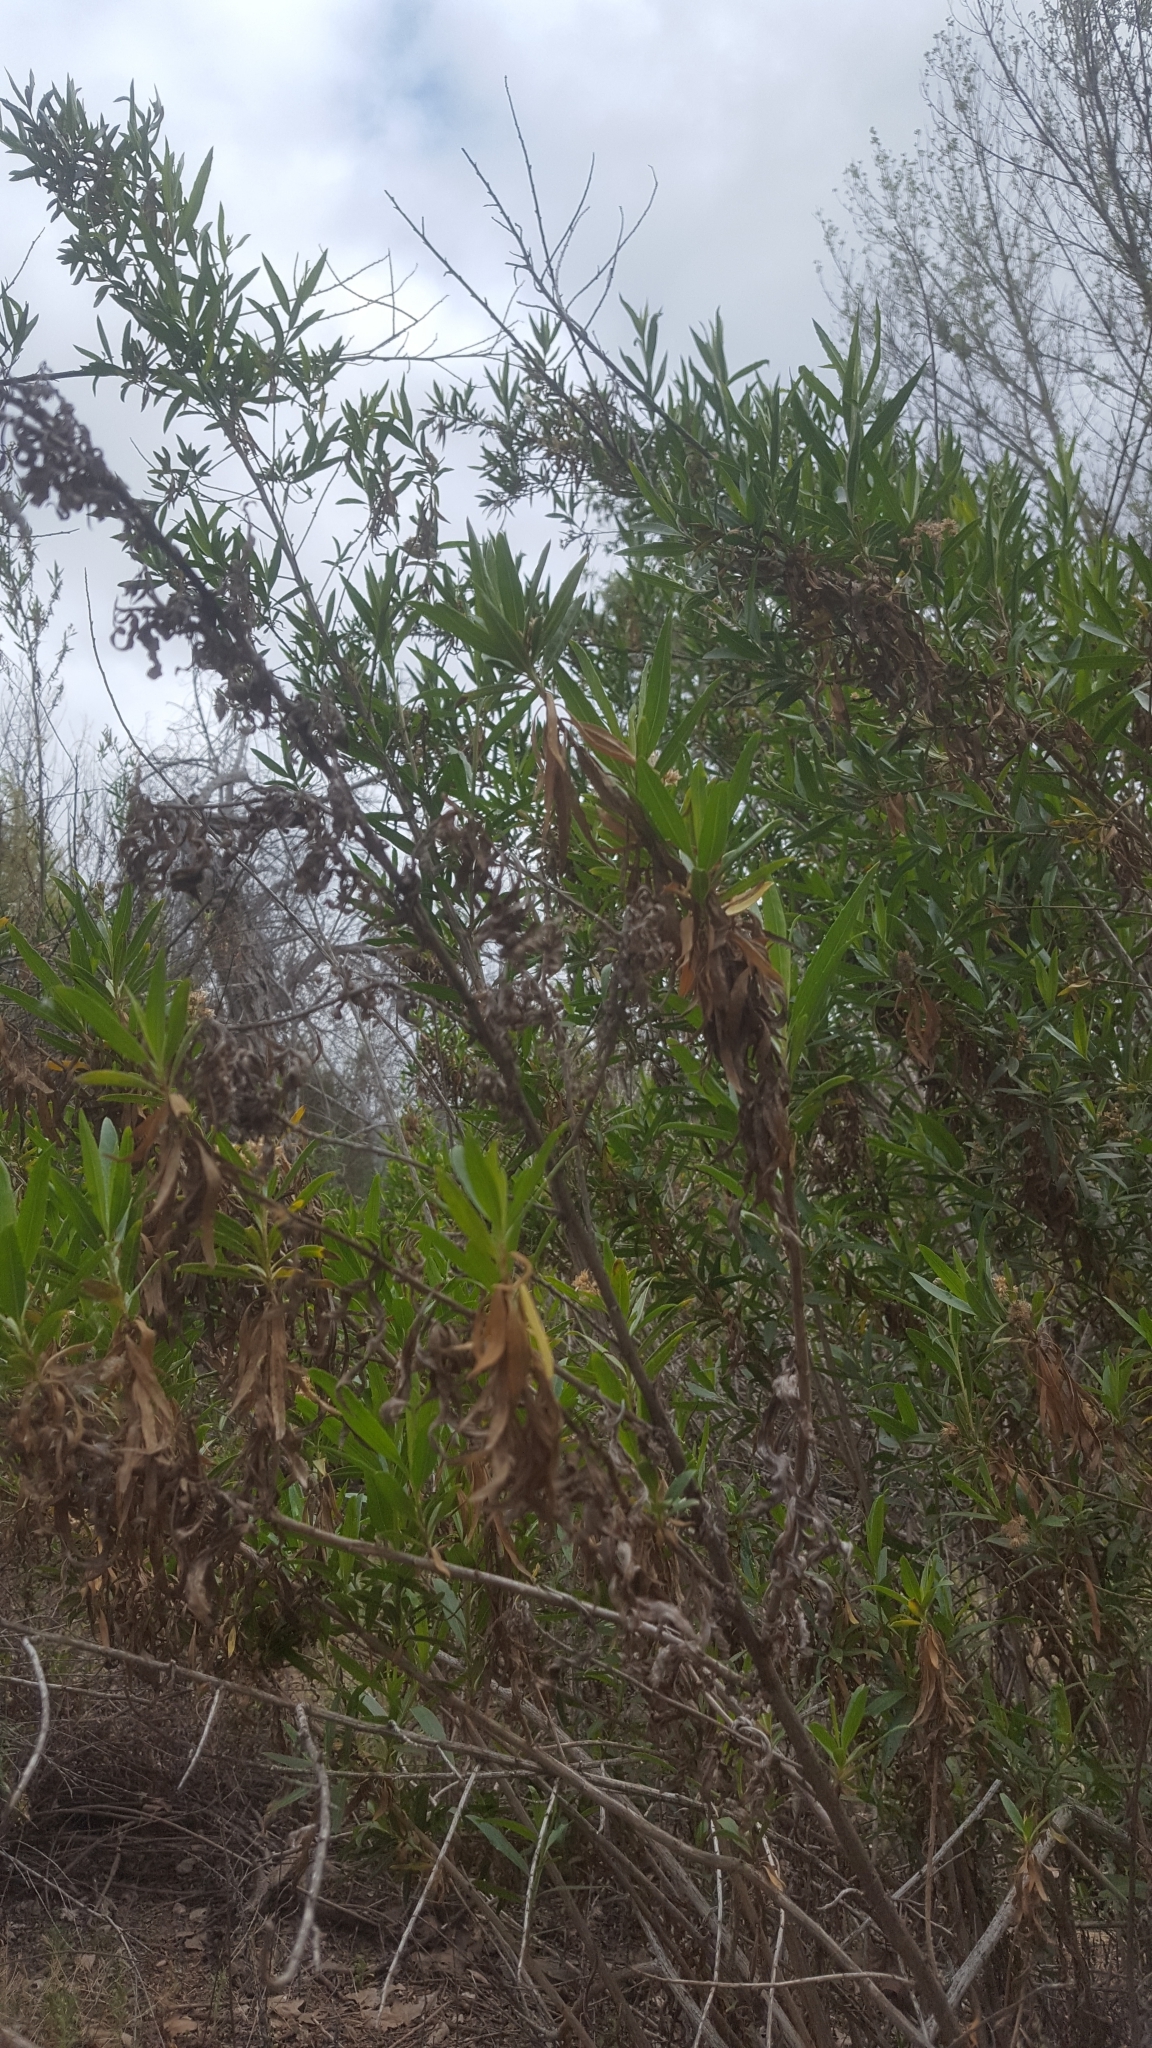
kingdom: Plantae
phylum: Tracheophyta
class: Magnoliopsida
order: Asterales
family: Asteraceae
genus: Baccharis
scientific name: Baccharis salicifolia
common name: Sticky baccharis
